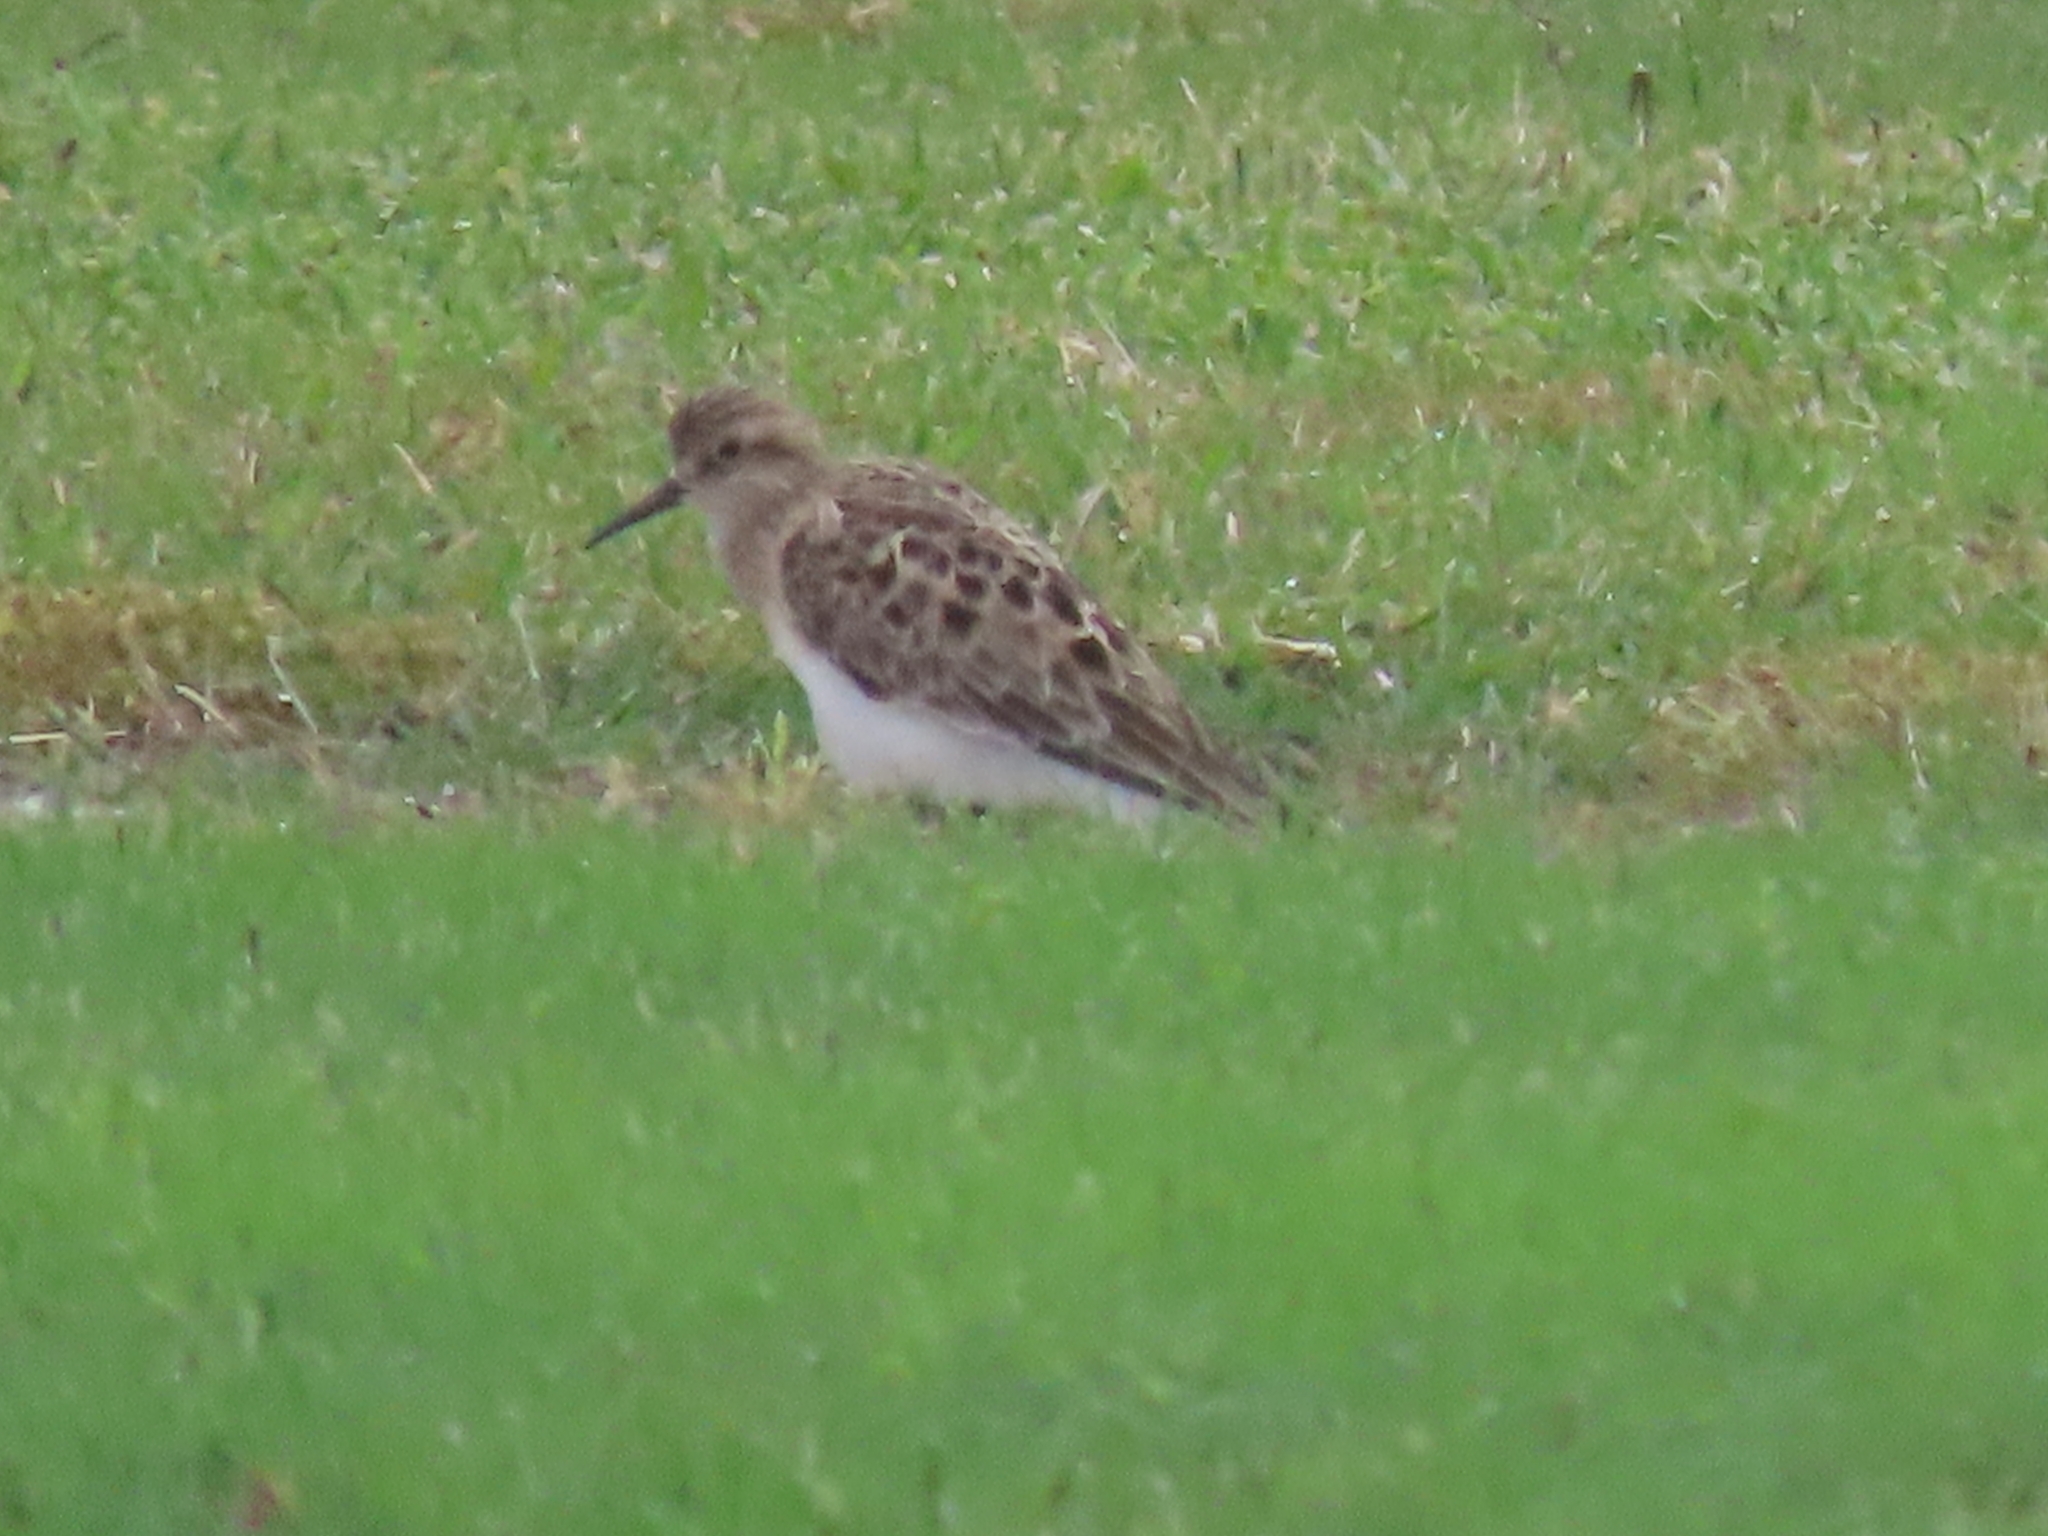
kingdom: Animalia
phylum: Chordata
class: Aves
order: Charadriiformes
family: Scolopacidae
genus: Calidris
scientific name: Calidris bairdii
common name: Baird's sandpiper
